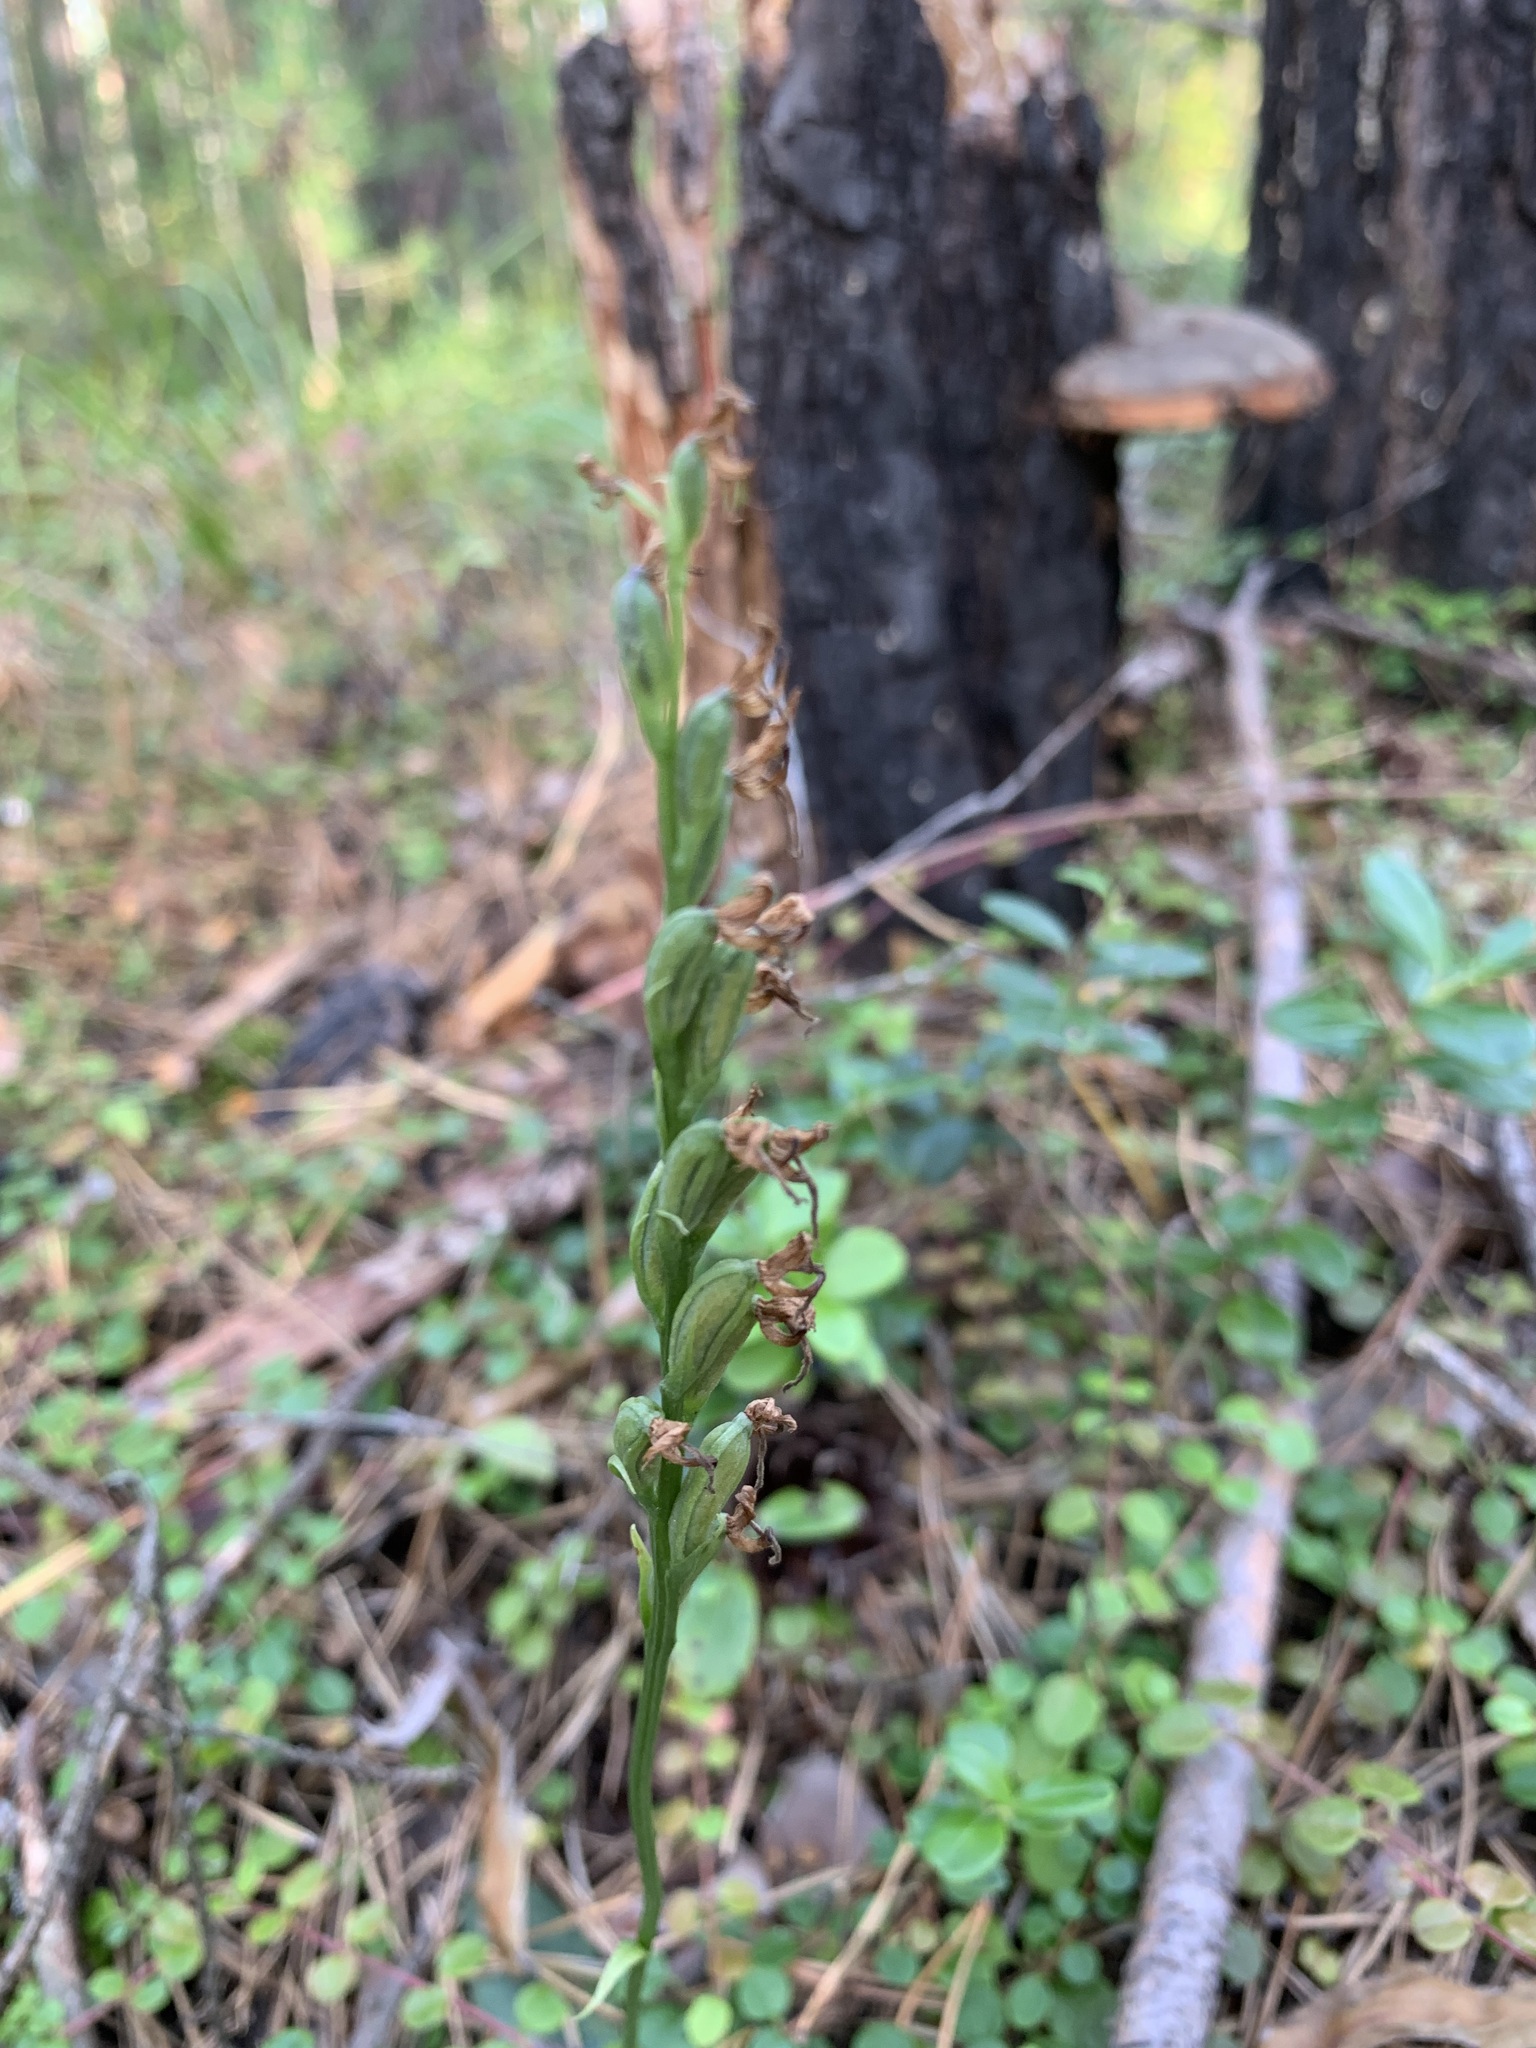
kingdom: Plantae
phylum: Tracheophyta
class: Liliopsida
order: Asparagales
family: Orchidaceae
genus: Hemipilia
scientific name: Hemipilia cucullata
